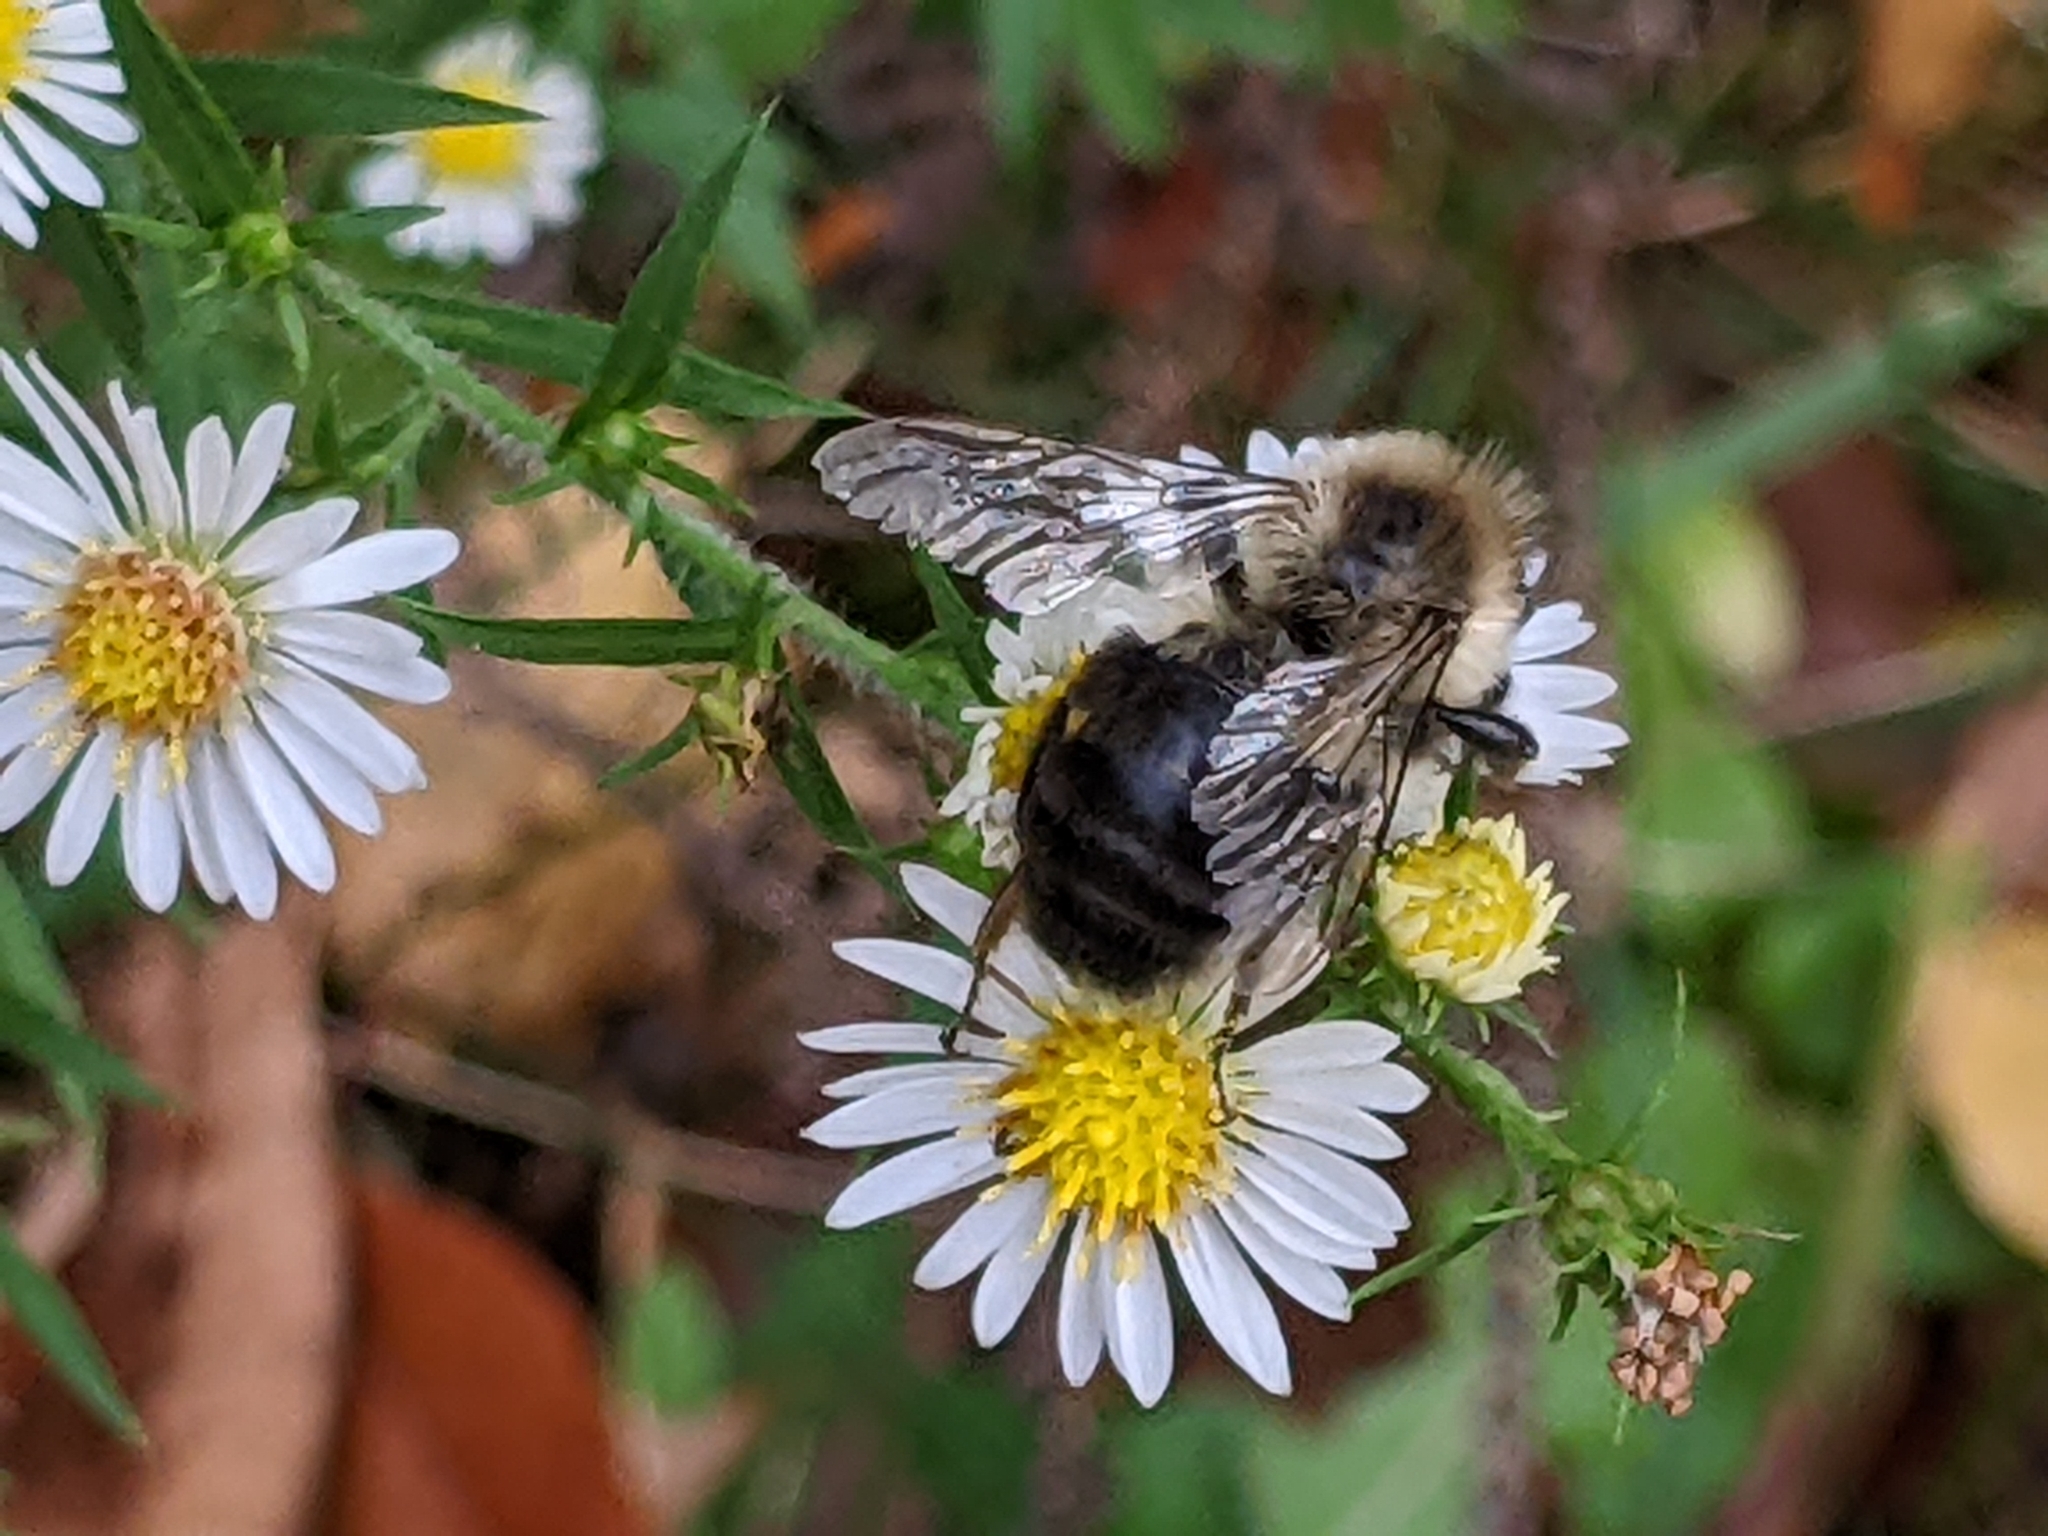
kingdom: Animalia
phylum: Arthropoda
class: Insecta
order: Hymenoptera
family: Apidae
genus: Bombus
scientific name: Bombus impatiens
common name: Common eastern bumble bee
